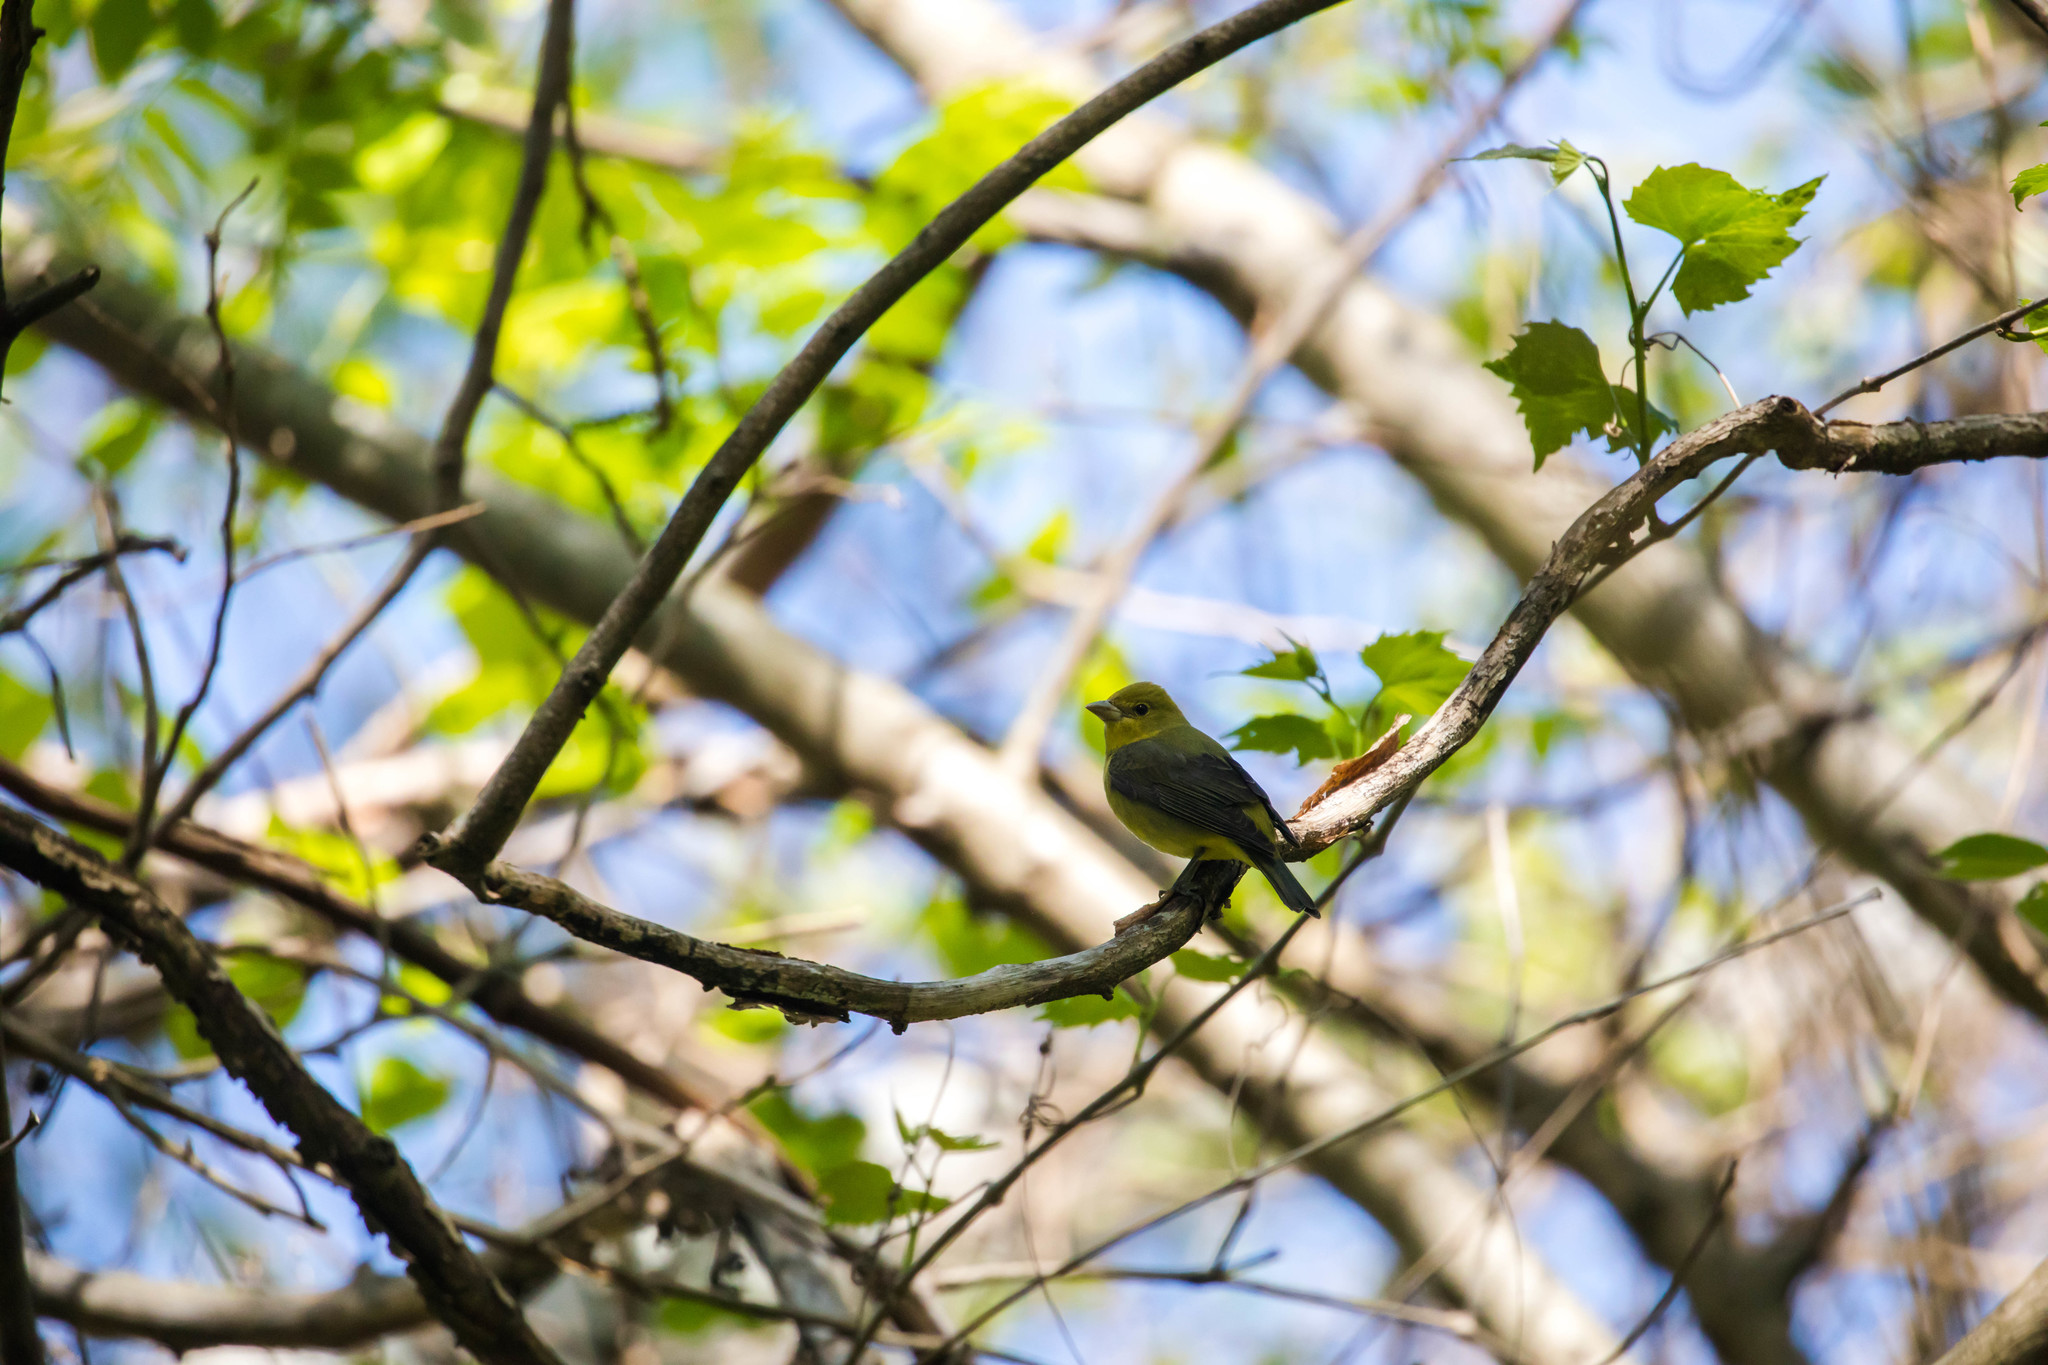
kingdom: Animalia
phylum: Chordata
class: Aves
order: Passeriformes
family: Cardinalidae
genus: Piranga
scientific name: Piranga olivacea
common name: Scarlet tanager
